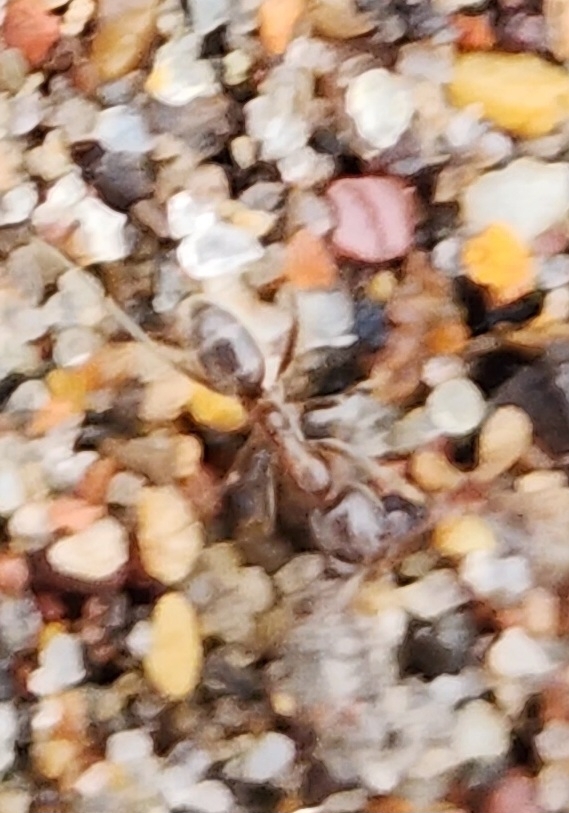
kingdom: Animalia
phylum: Arthropoda
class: Insecta
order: Hymenoptera
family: Formicidae
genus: Linepithema
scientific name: Linepithema humile
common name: Argentine ant
